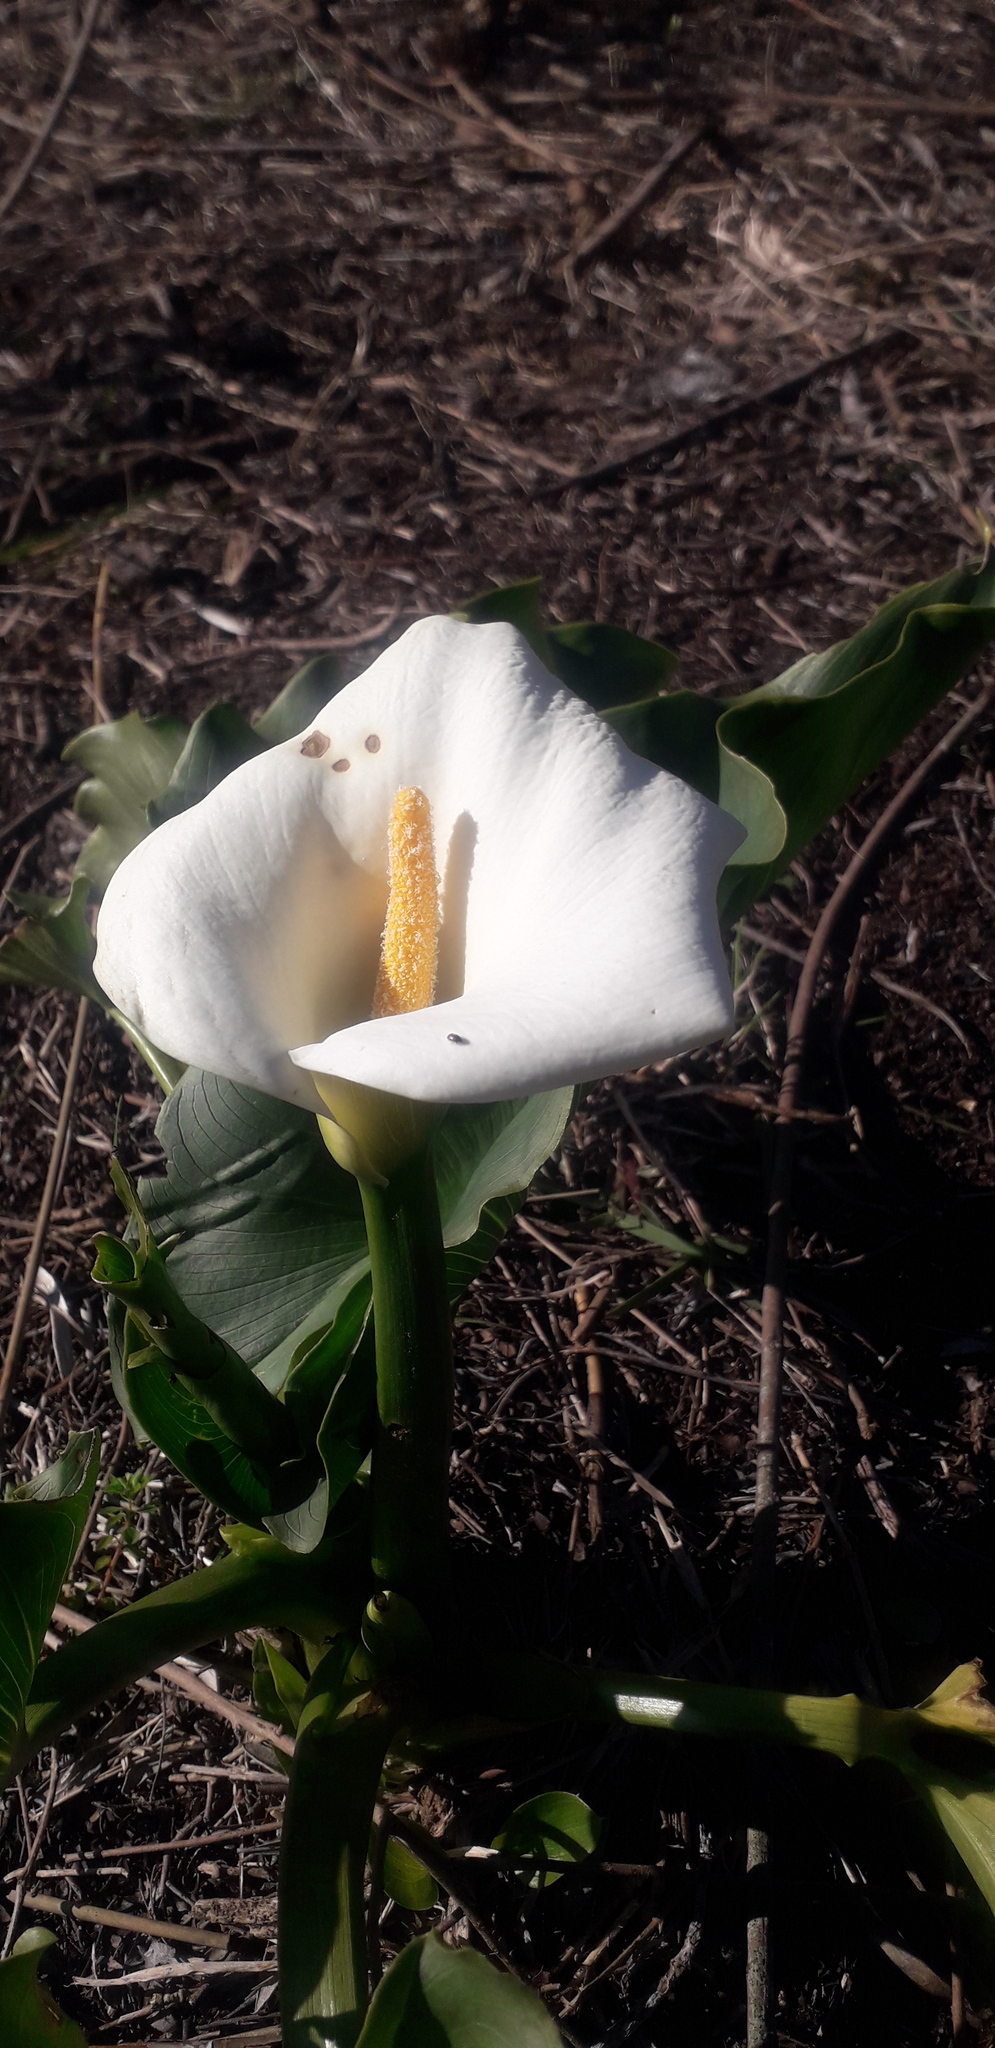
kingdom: Plantae
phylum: Tracheophyta
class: Liliopsida
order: Alismatales
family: Araceae
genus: Zantedeschia
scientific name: Zantedeschia aethiopica
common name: Altar-lily
